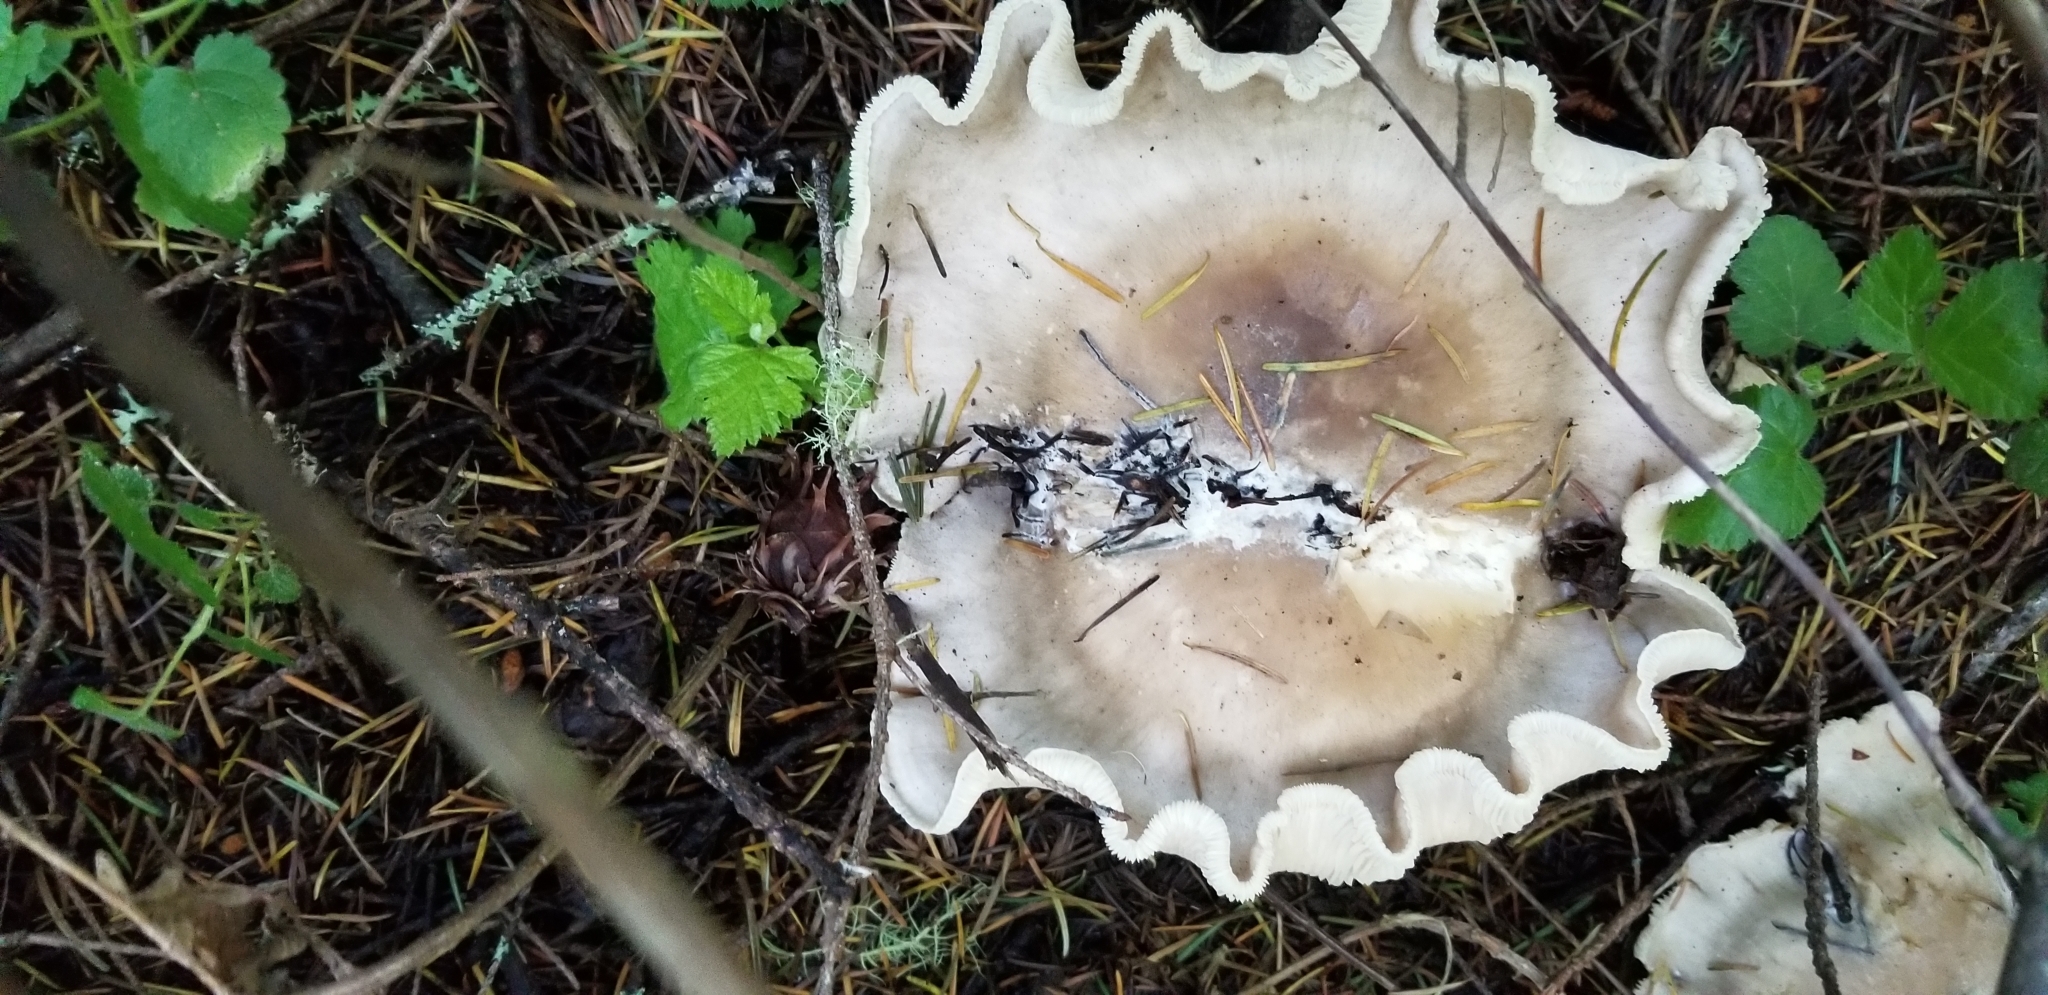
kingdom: Fungi
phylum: Basidiomycota
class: Agaricomycetes
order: Agaricales
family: Tricholomataceae
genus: Clitocybe
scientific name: Clitocybe nebularis
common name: Clouded agaric
